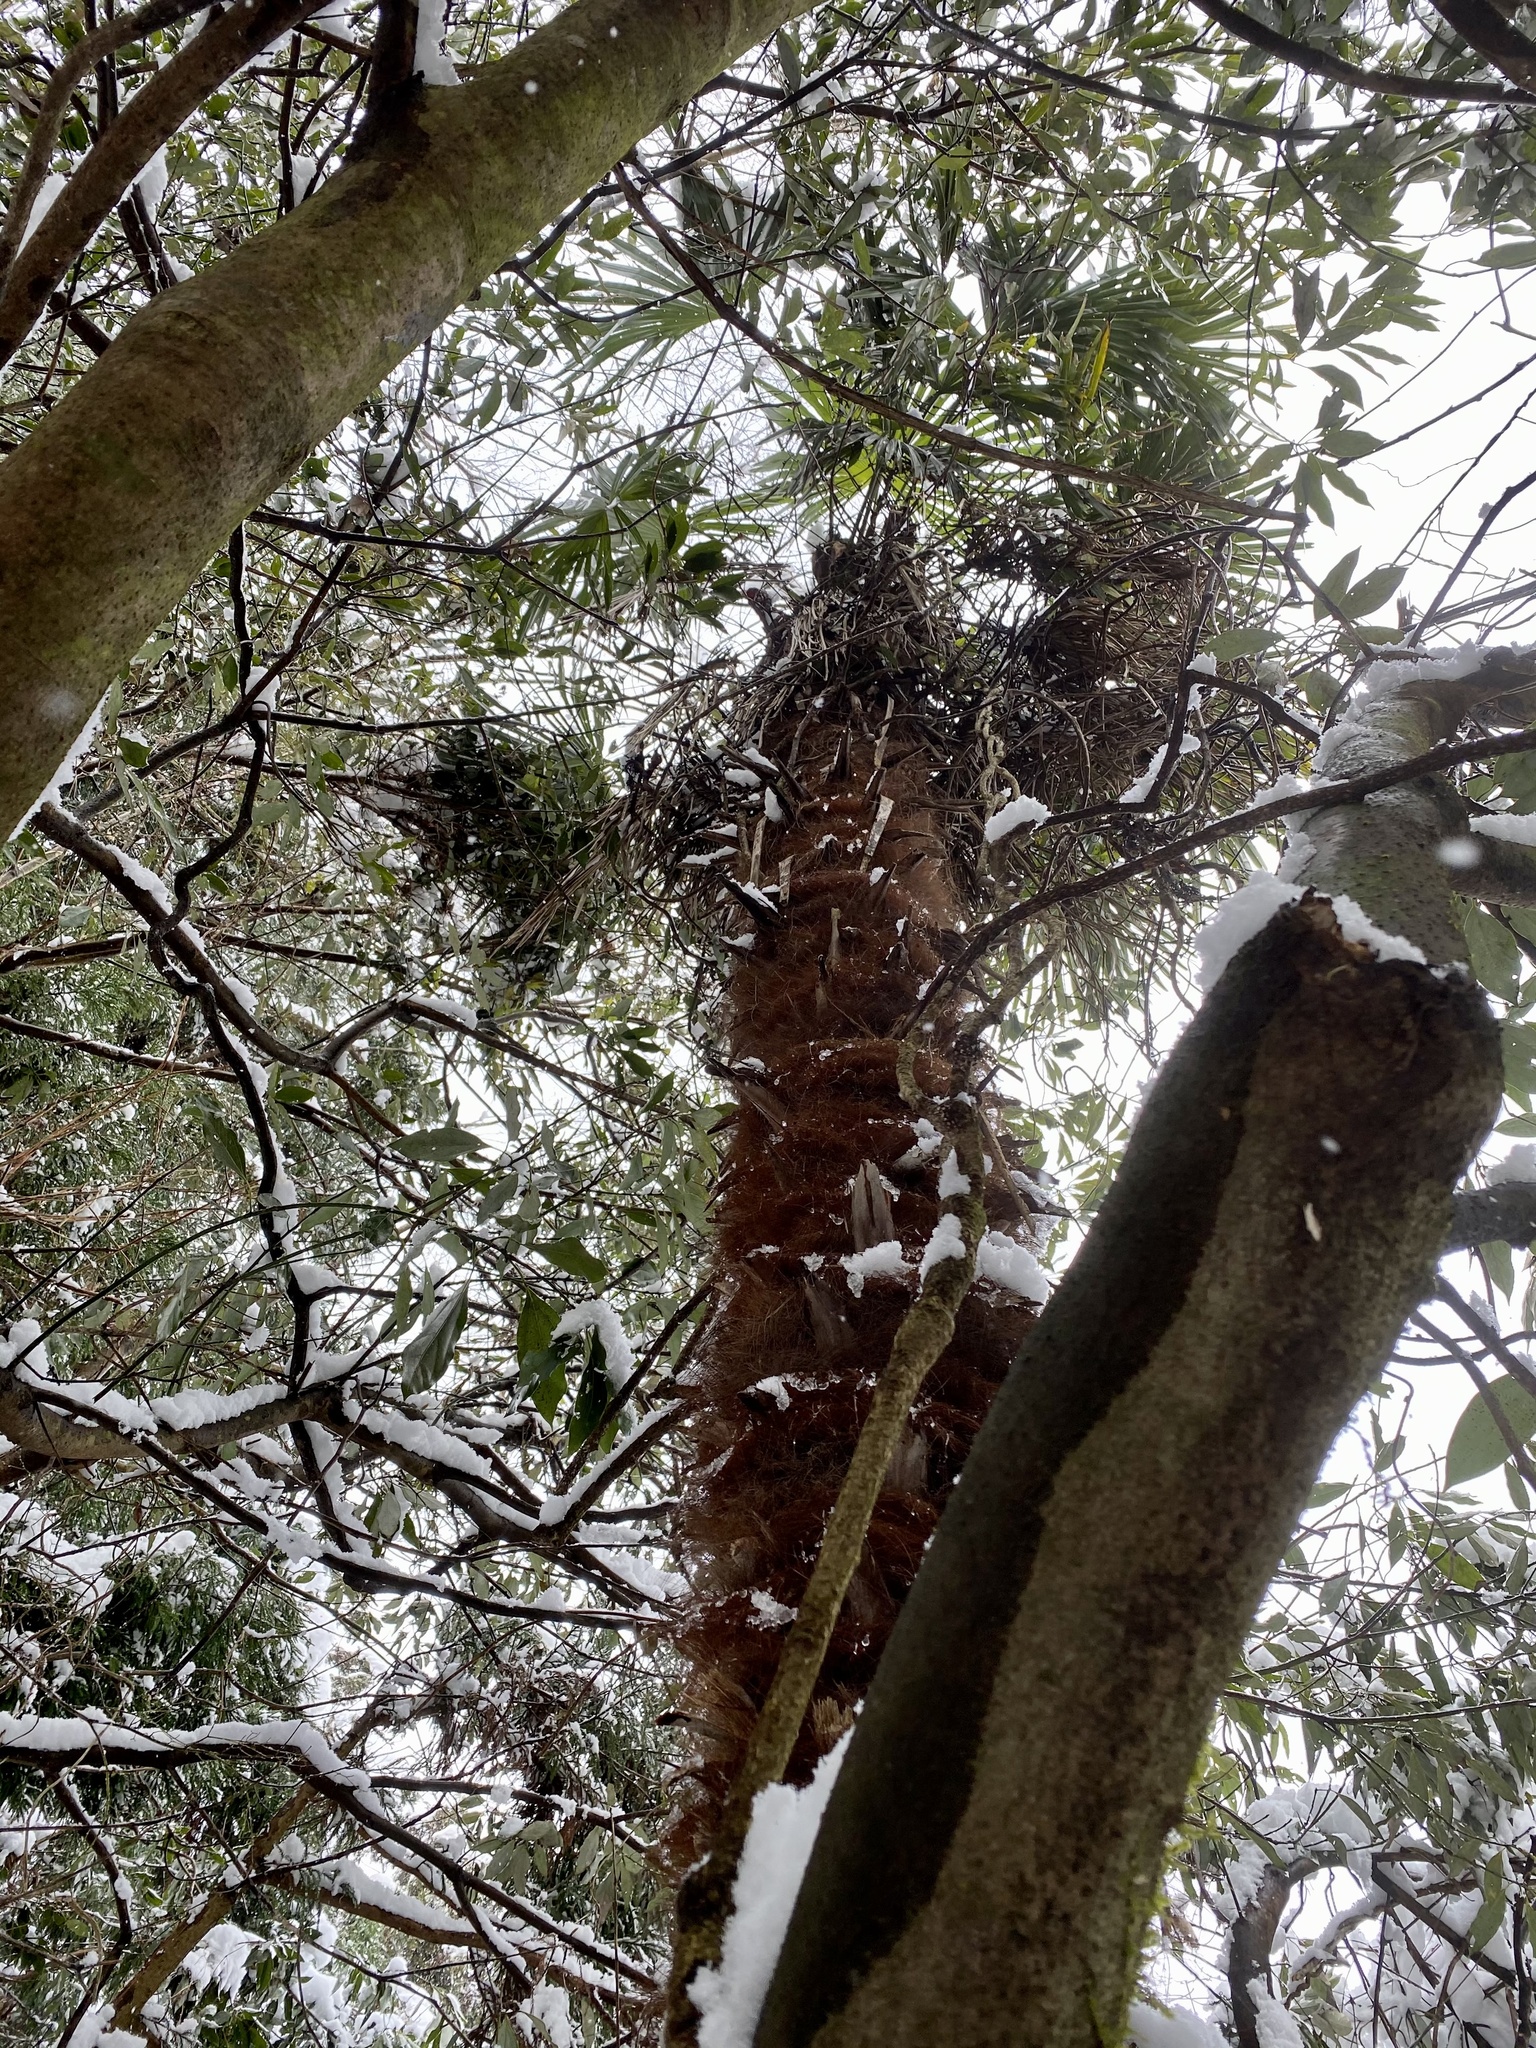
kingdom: Plantae
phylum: Tracheophyta
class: Liliopsida
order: Arecales
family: Arecaceae
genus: Trachycarpus
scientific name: Trachycarpus fortunei
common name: Chusan palm
